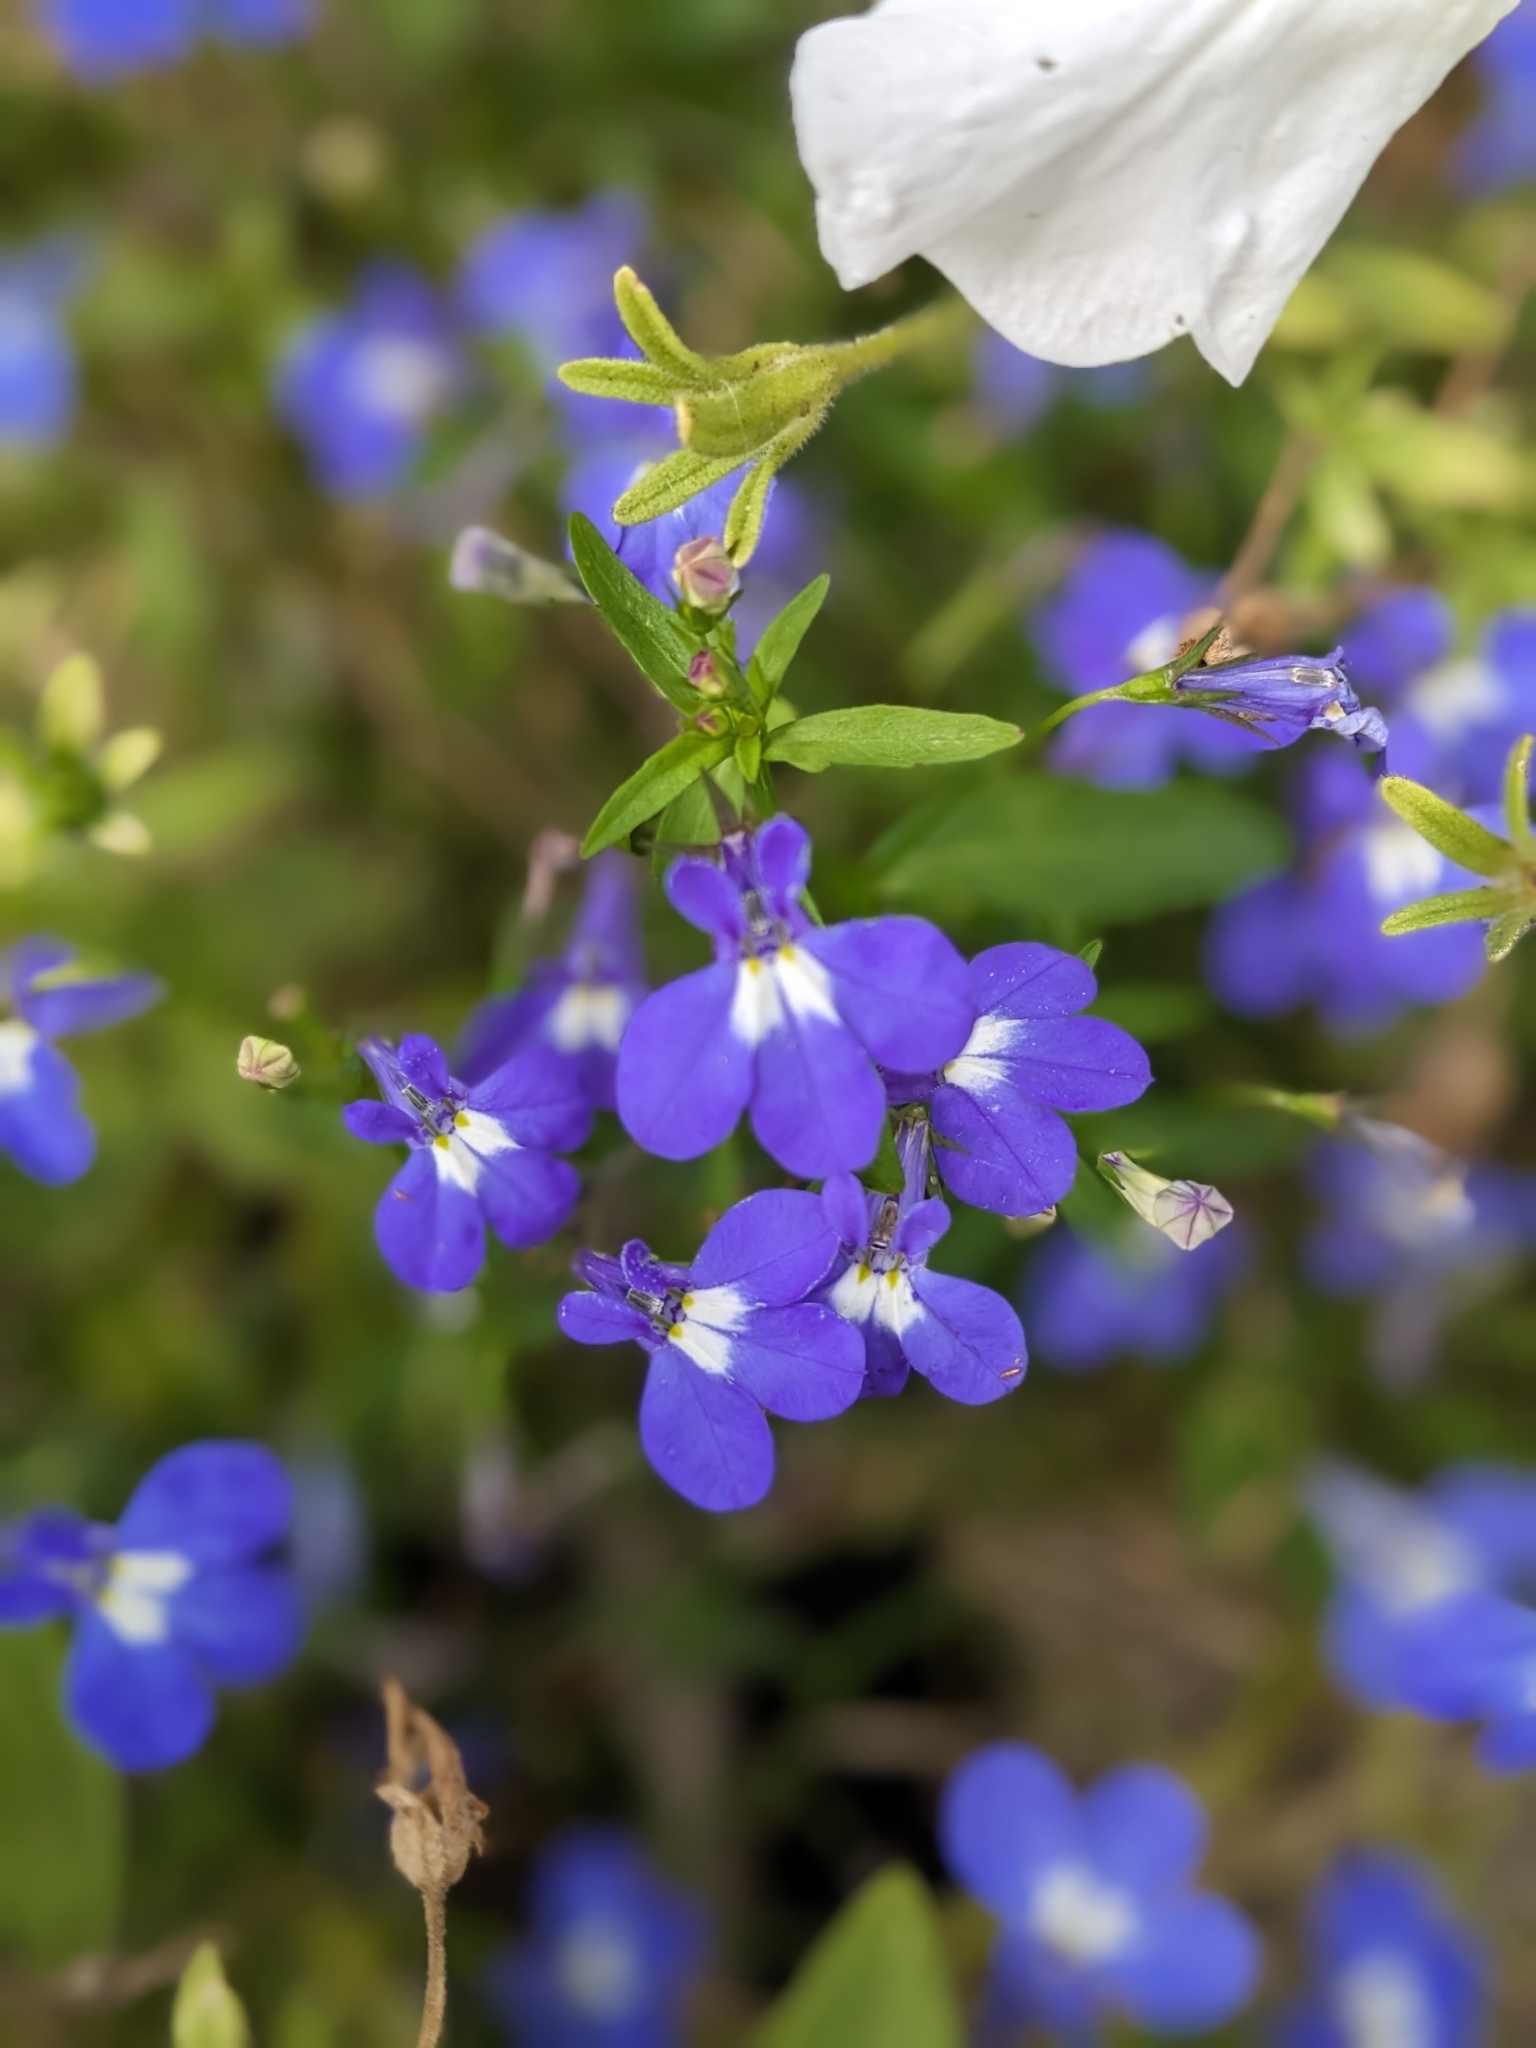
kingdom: Plantae
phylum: Tracheophyta
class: Magnoliopsida
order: Asterales
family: Campanulaceae
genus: Lobelia
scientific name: Lobelia erinus
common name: Edging lobelia
